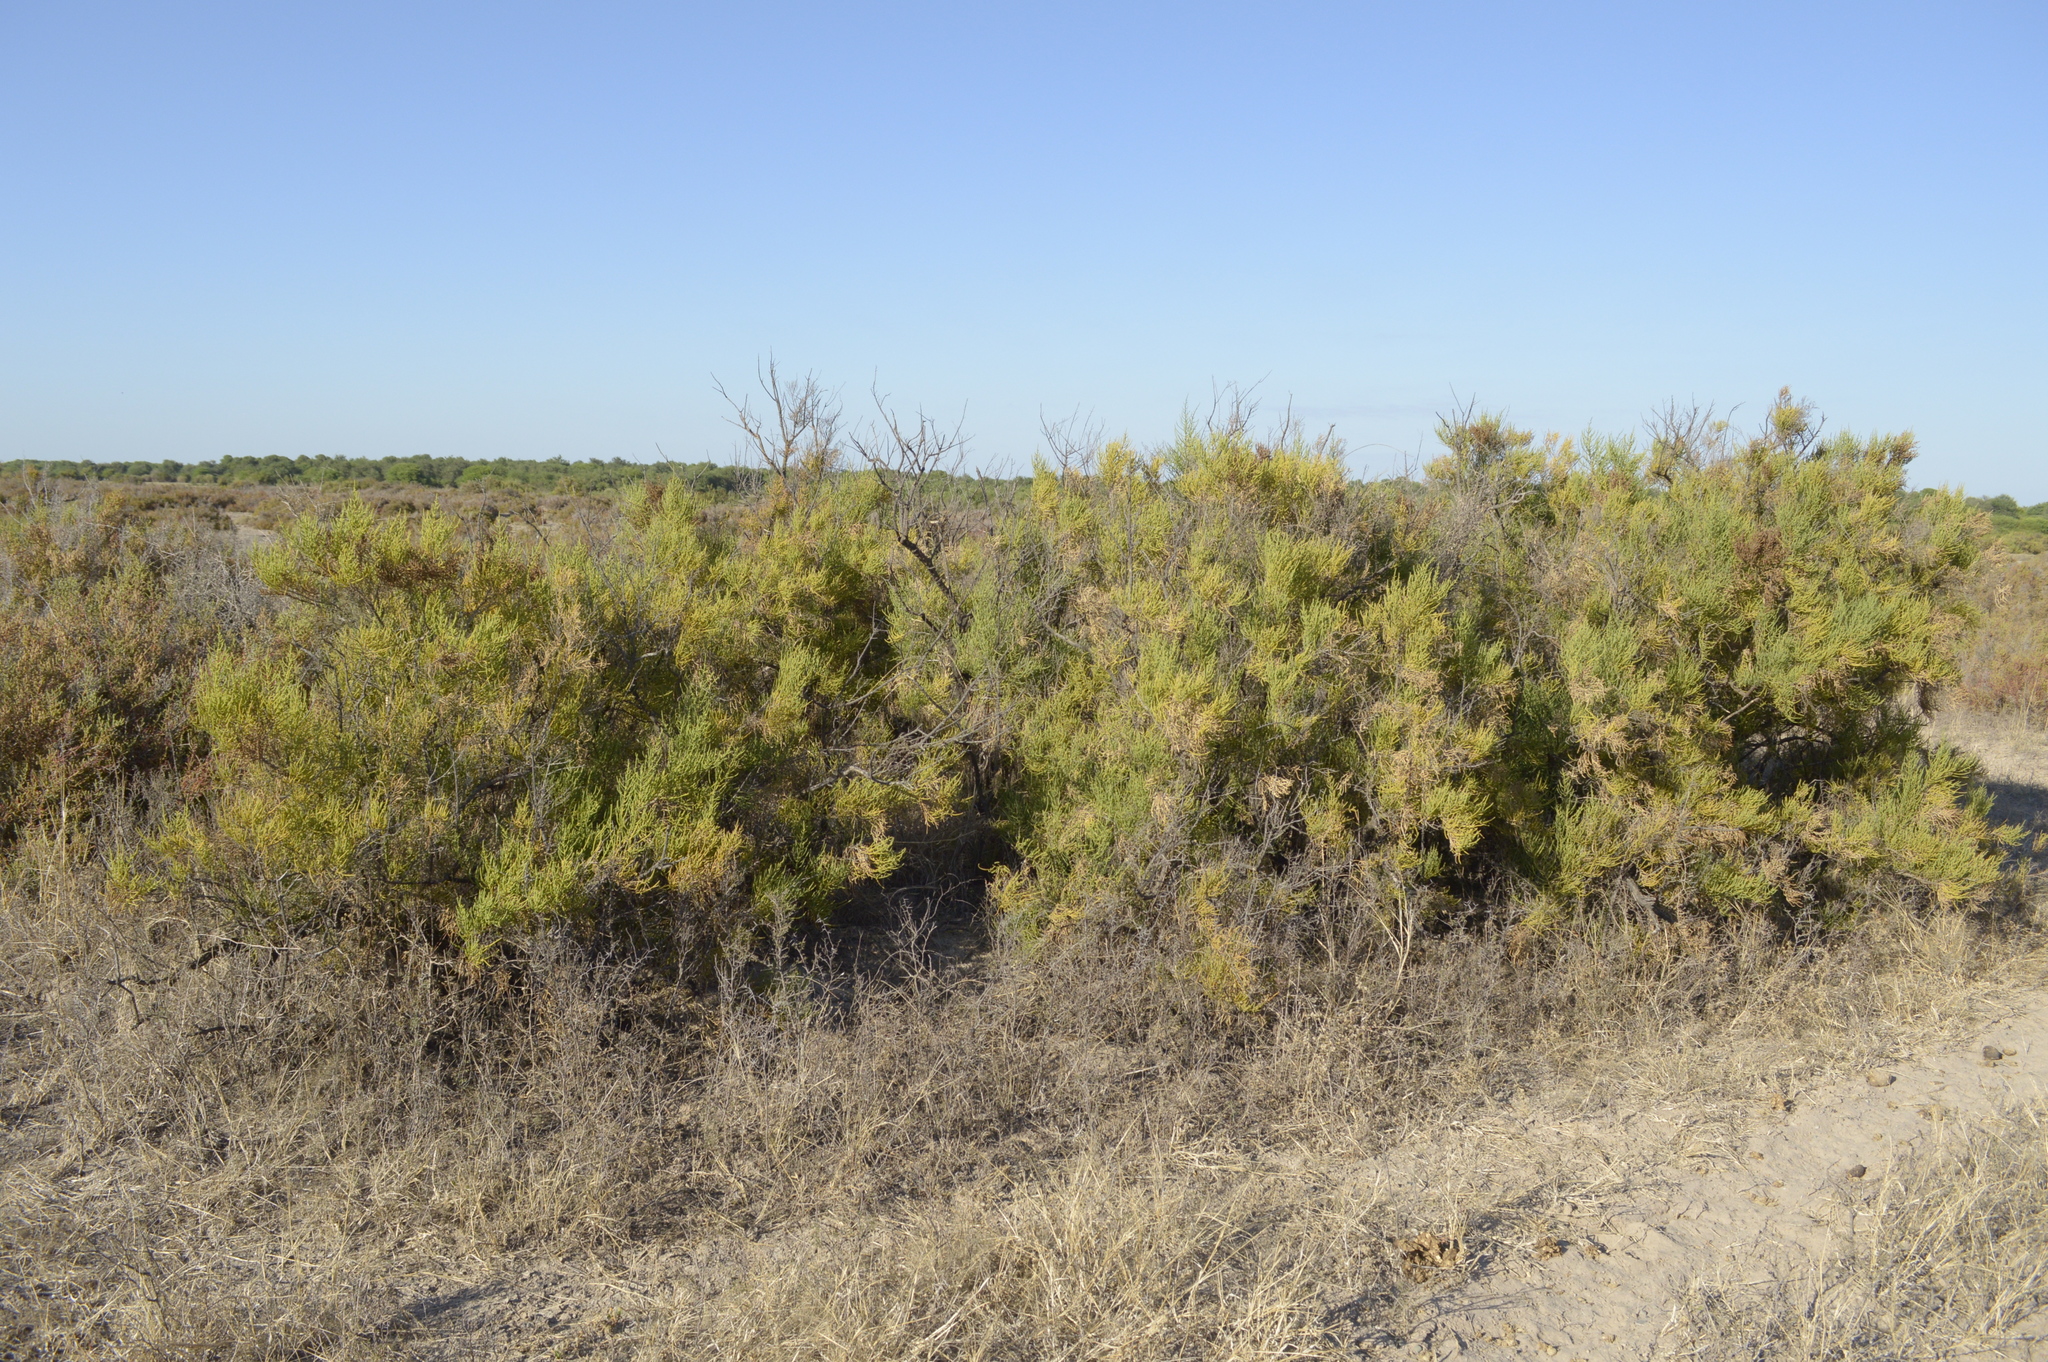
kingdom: Plantae
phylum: Tracheophyta
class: Magnoliopsida
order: Caryophyllales
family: Amaranthaceae
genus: Allenrolfea
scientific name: Allenrolfea vaginata
